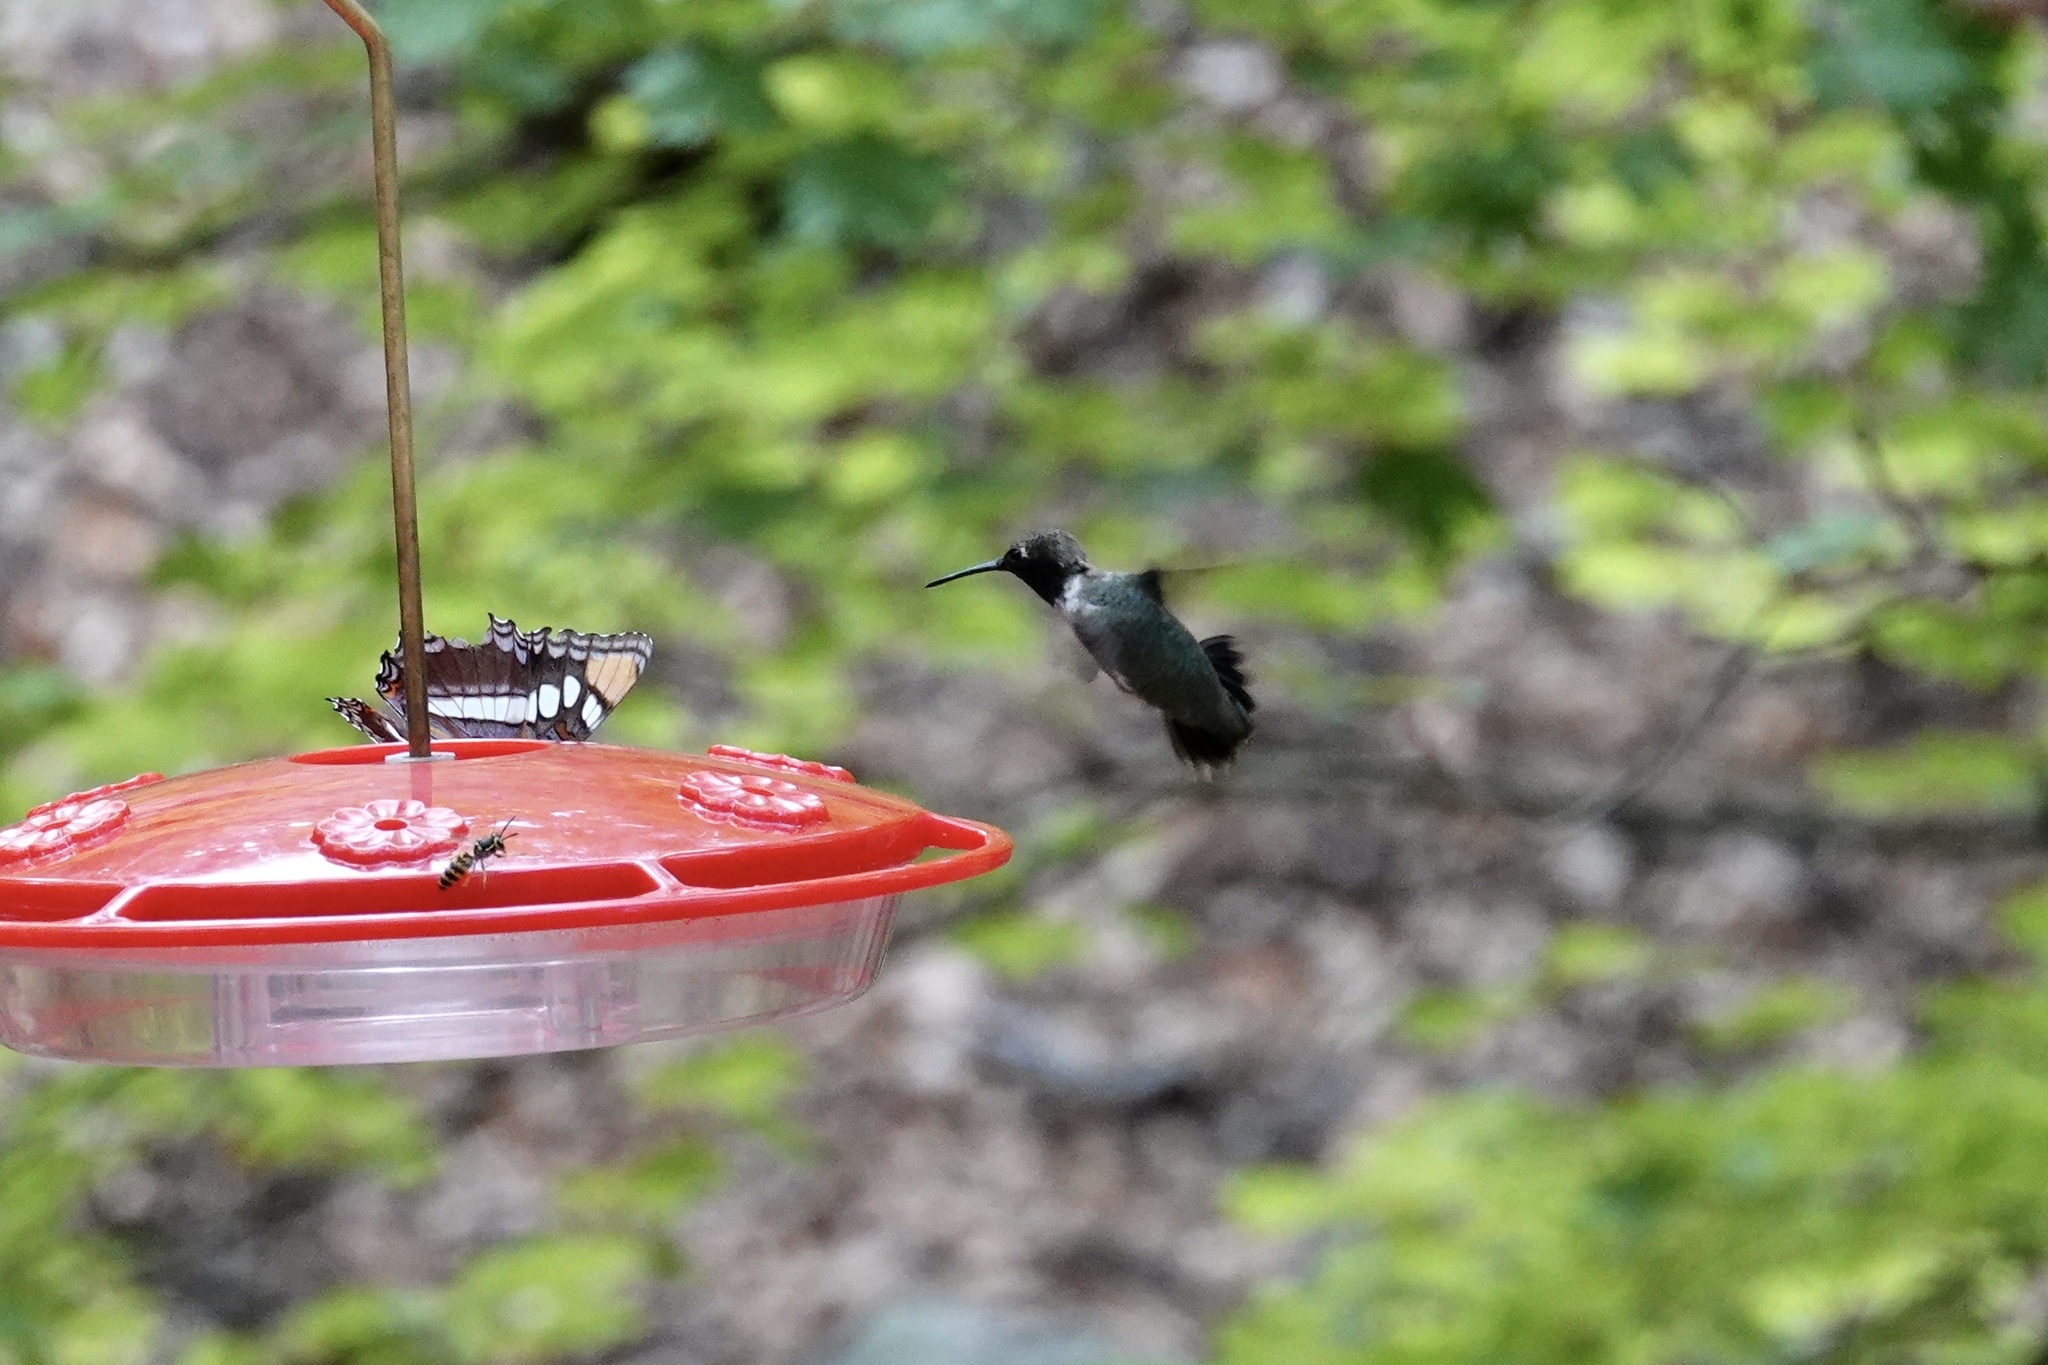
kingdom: Animalia
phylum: Chordata
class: Aves
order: Apodiformes
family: Trochilidae
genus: Archilochus
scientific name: Archilochus alexandri
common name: Black-chinned hummingbird
